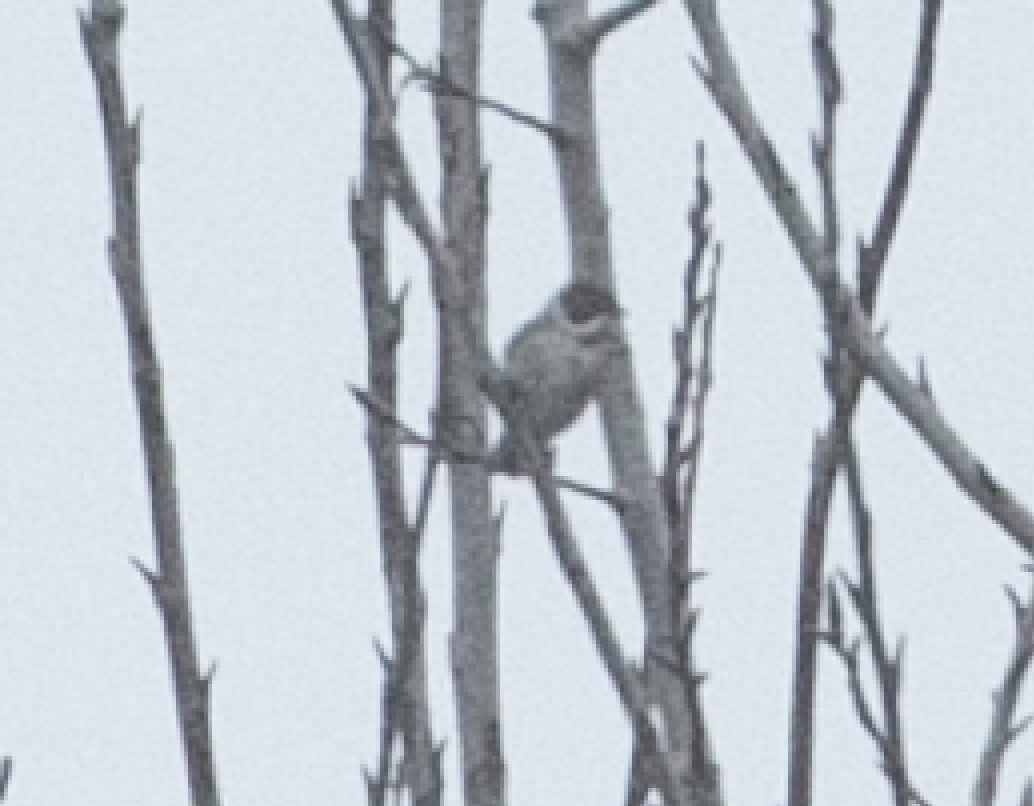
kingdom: Animalia
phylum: Chordata
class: Aves
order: Passeriformes
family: Emberizidae
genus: Emberiza
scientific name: Emberiza schoeniclus
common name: Reed bunting
